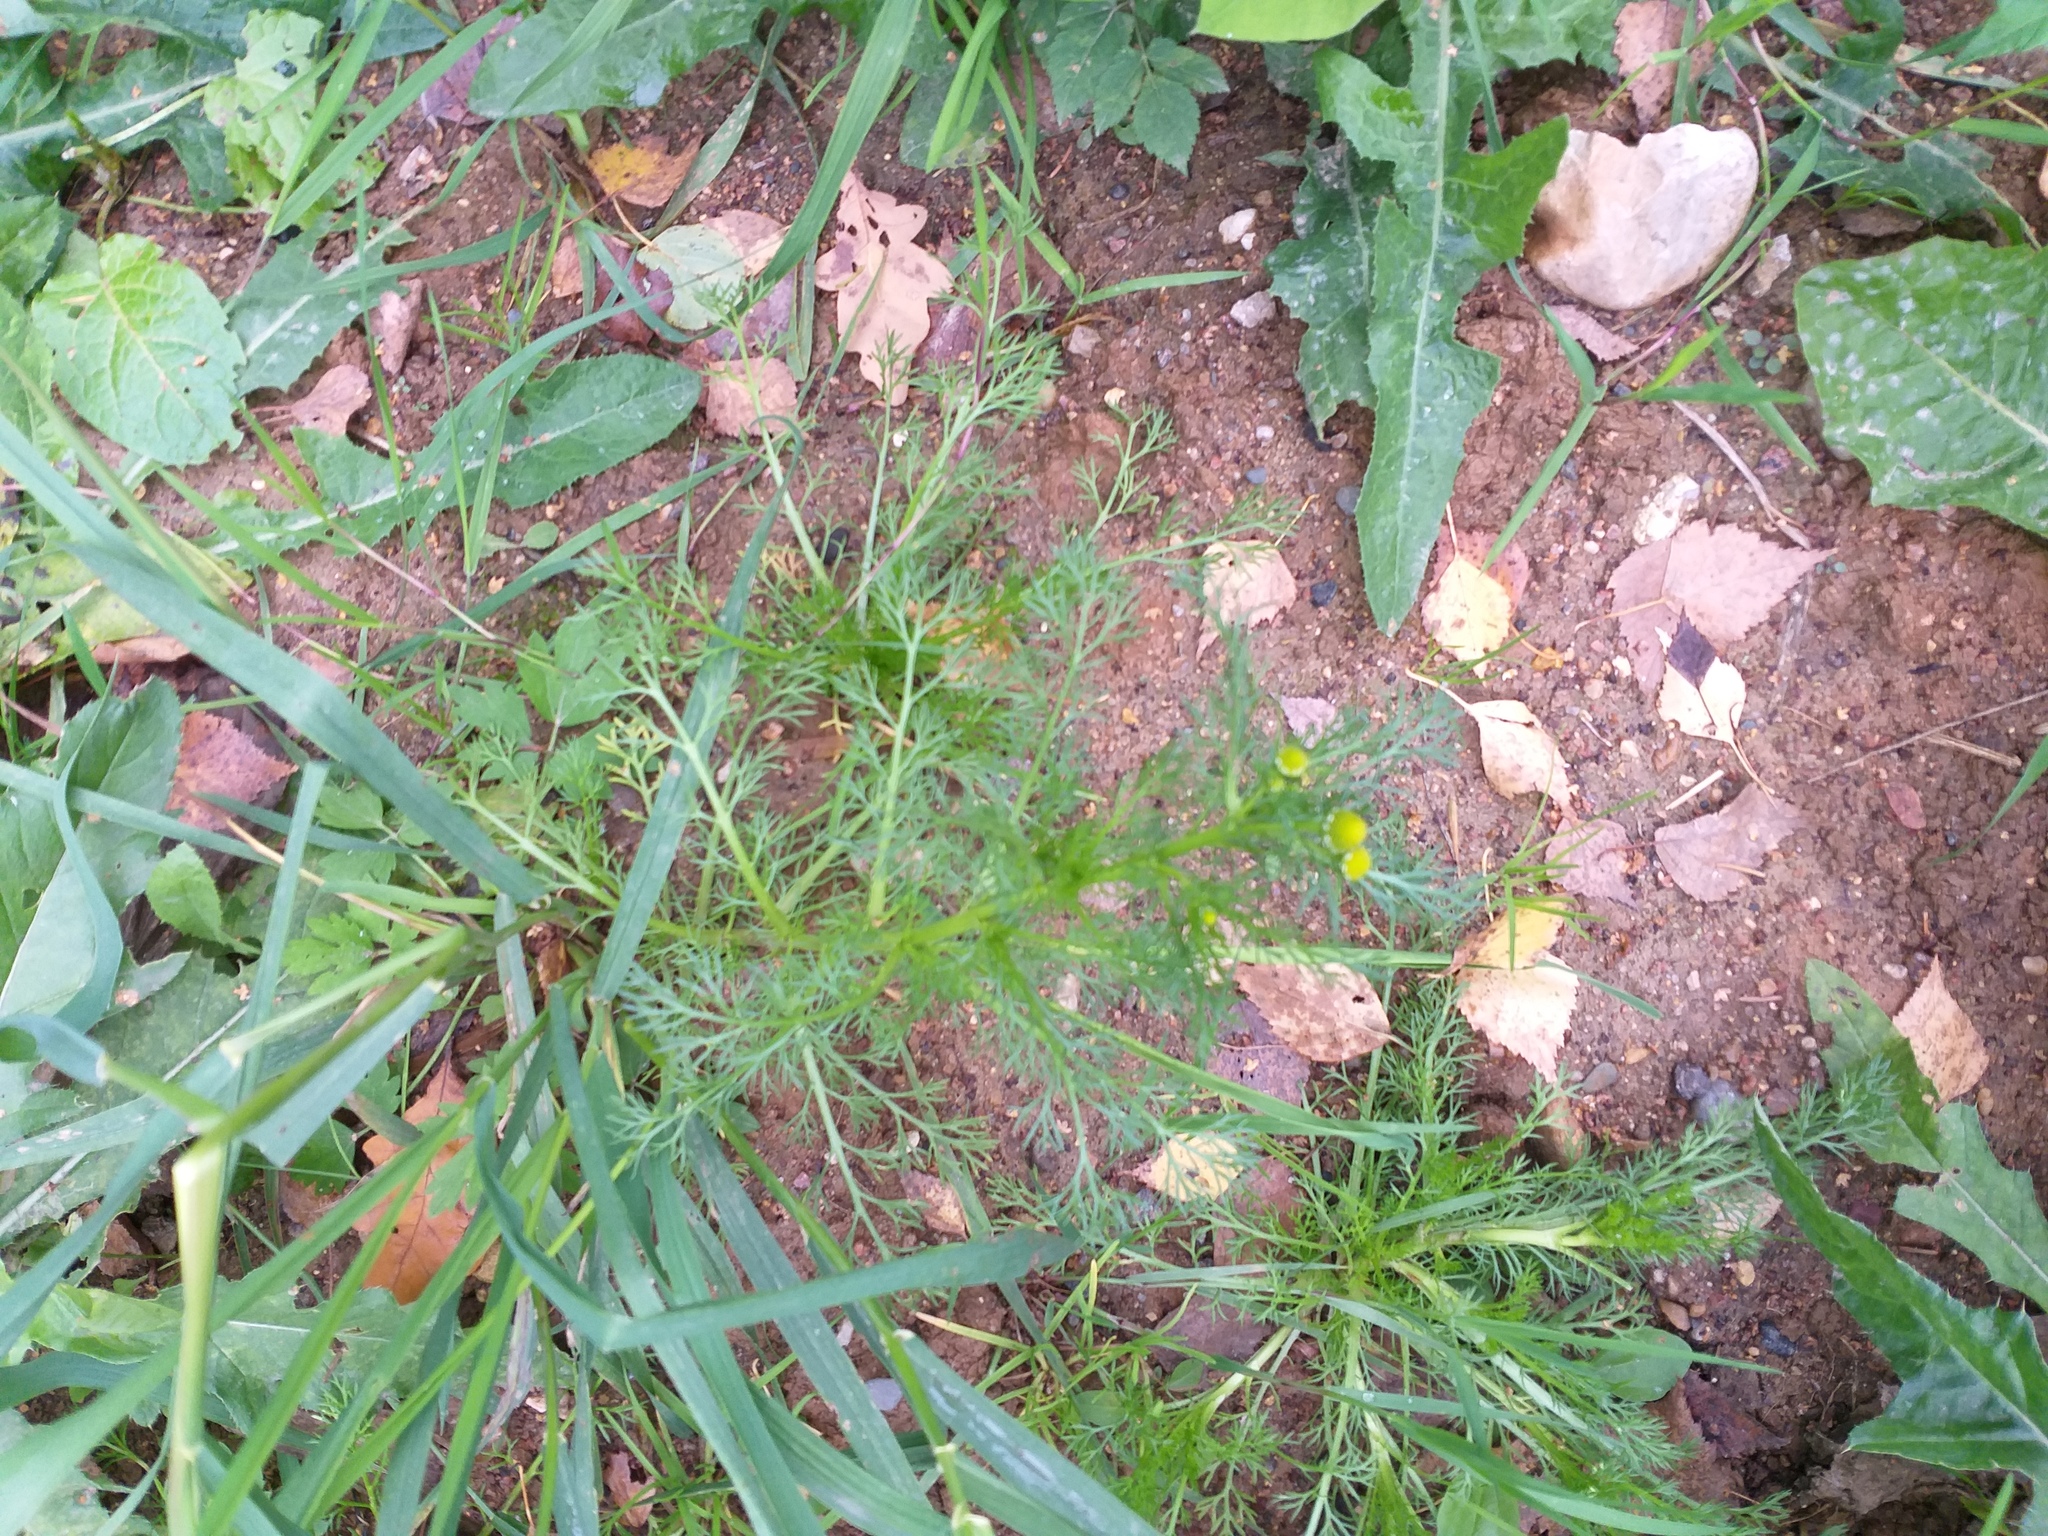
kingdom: Plantae
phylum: Tracheophyta
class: Magnoliopsida
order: Asterales
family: Asteraceae
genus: Matricaria
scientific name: Matricaria discoidea
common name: Disc mayweed
